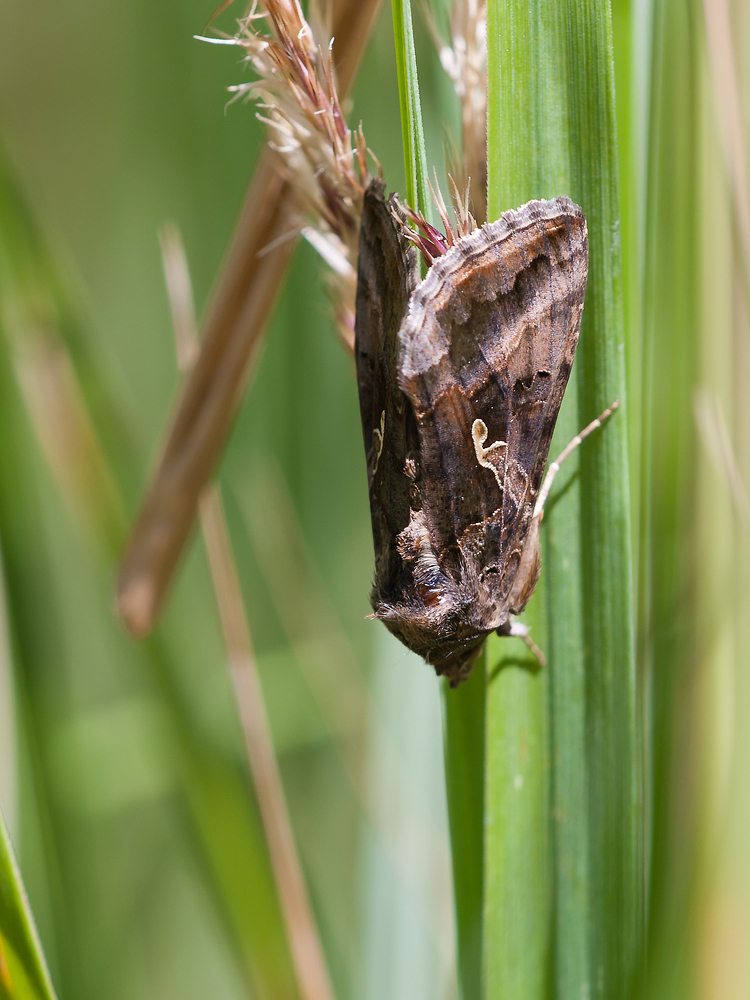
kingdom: Animalia
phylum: Arthropoda
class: Insecta
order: Lepidoptera
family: Noctuidae
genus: Autographa
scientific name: Autographa gamma
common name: Silver y
